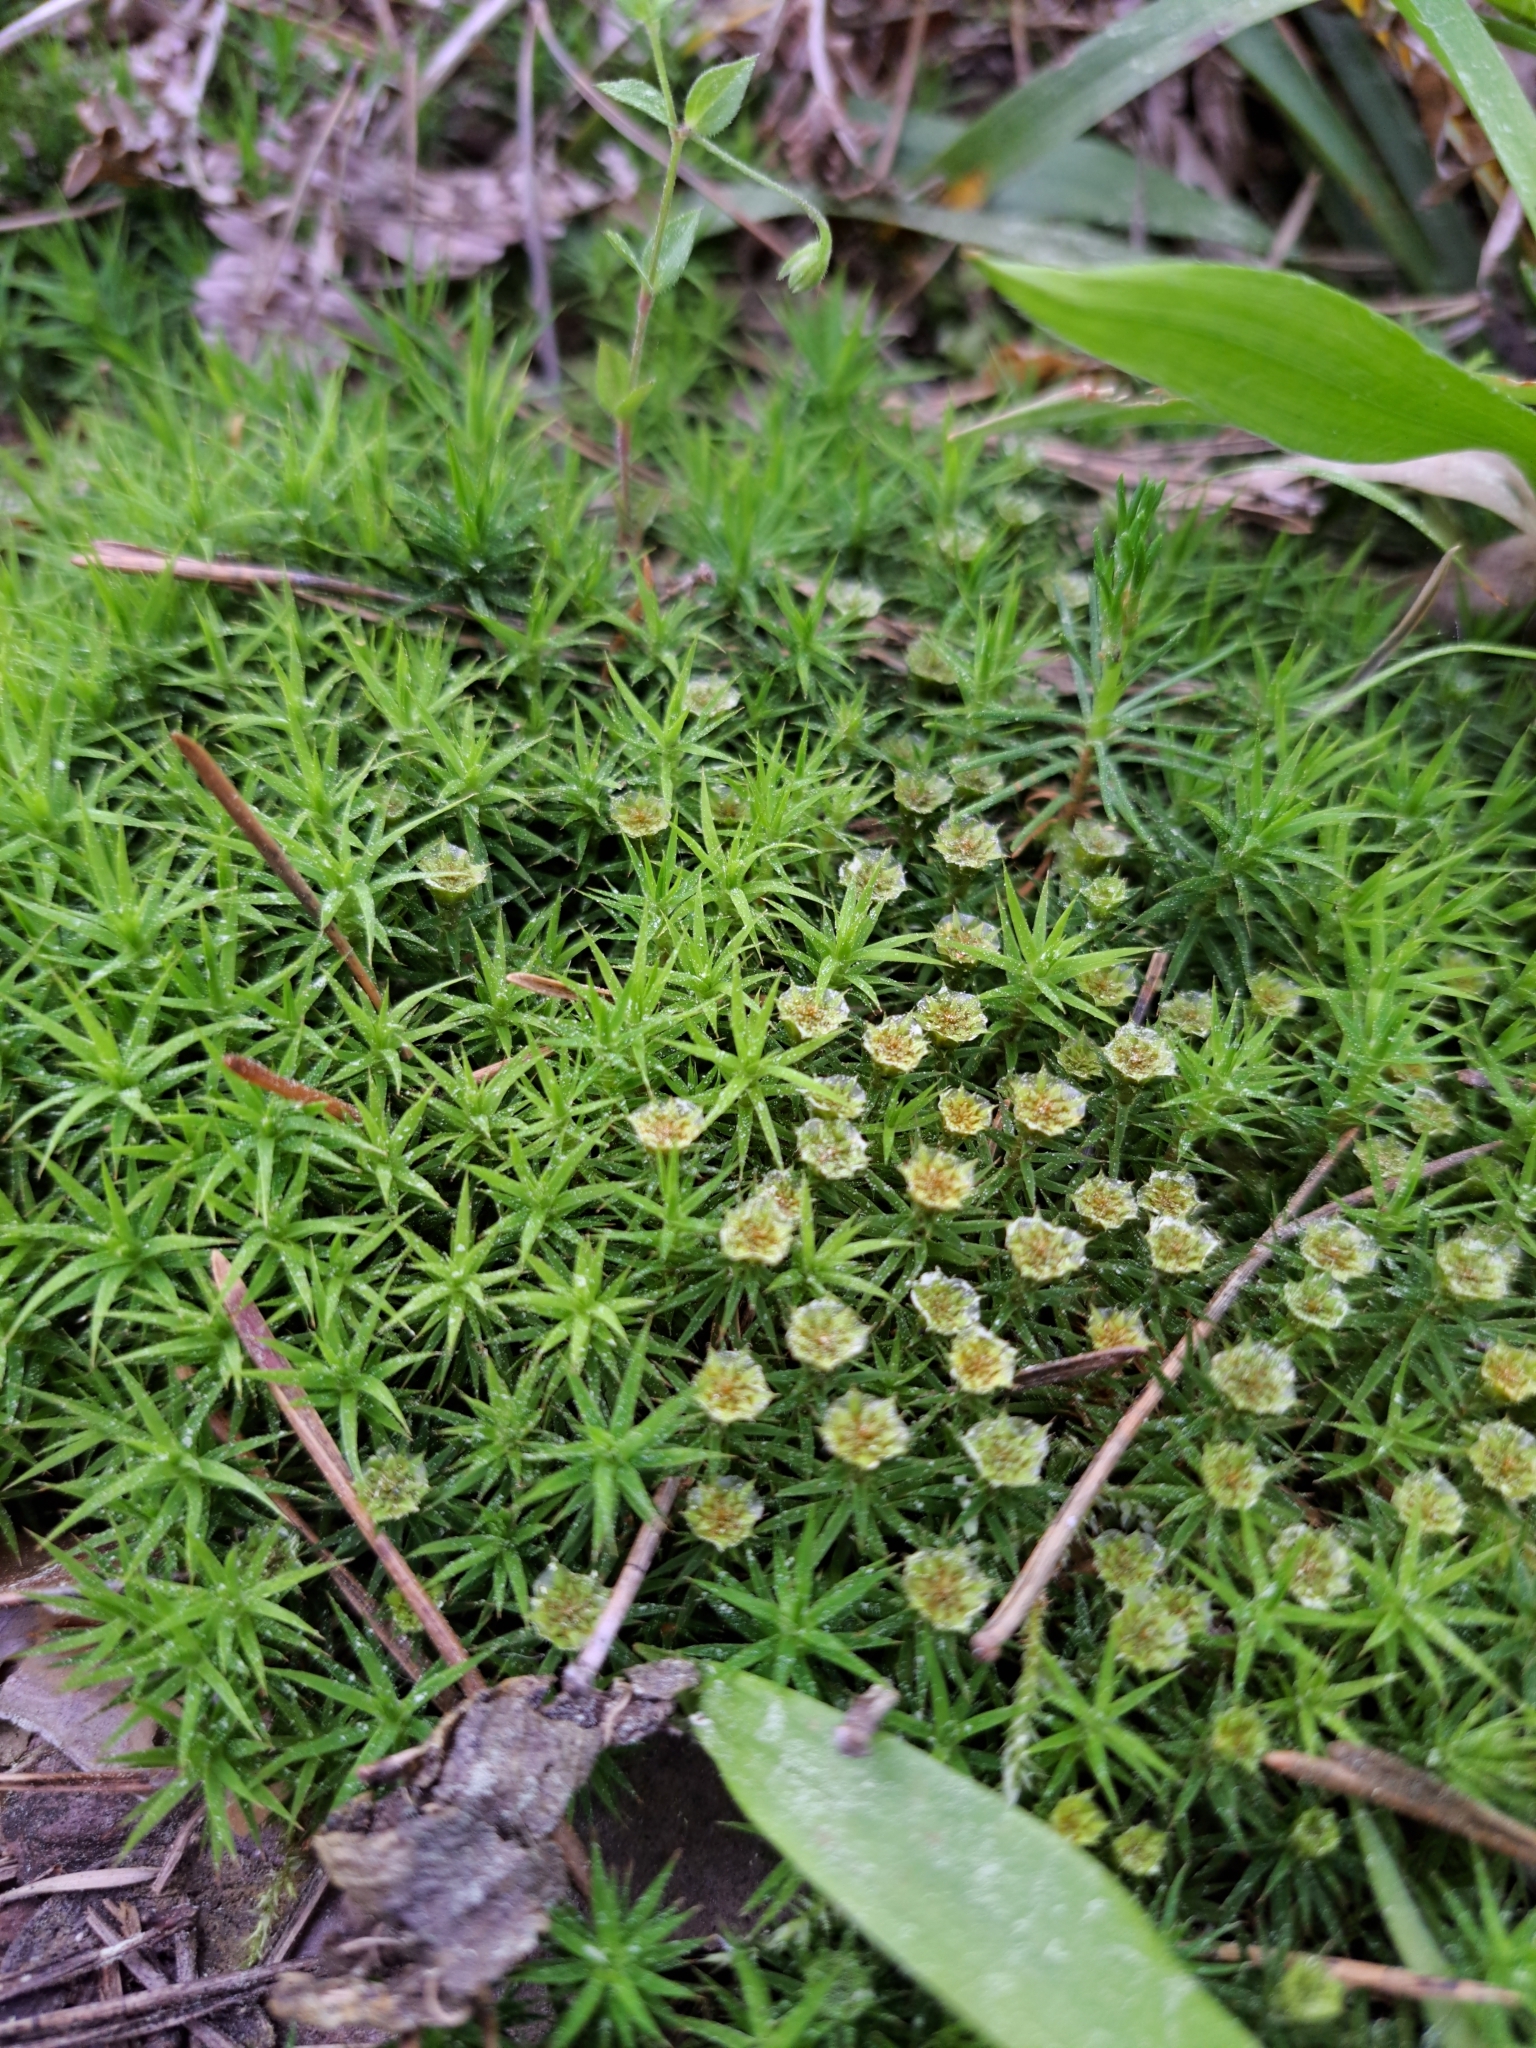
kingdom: Plantae
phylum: Bryophyta
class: Polytrichopsida
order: Polytrichales
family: Polytrichaceae
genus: Polytrichum
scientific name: Polytrichum formosum
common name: Bank haircap moss
